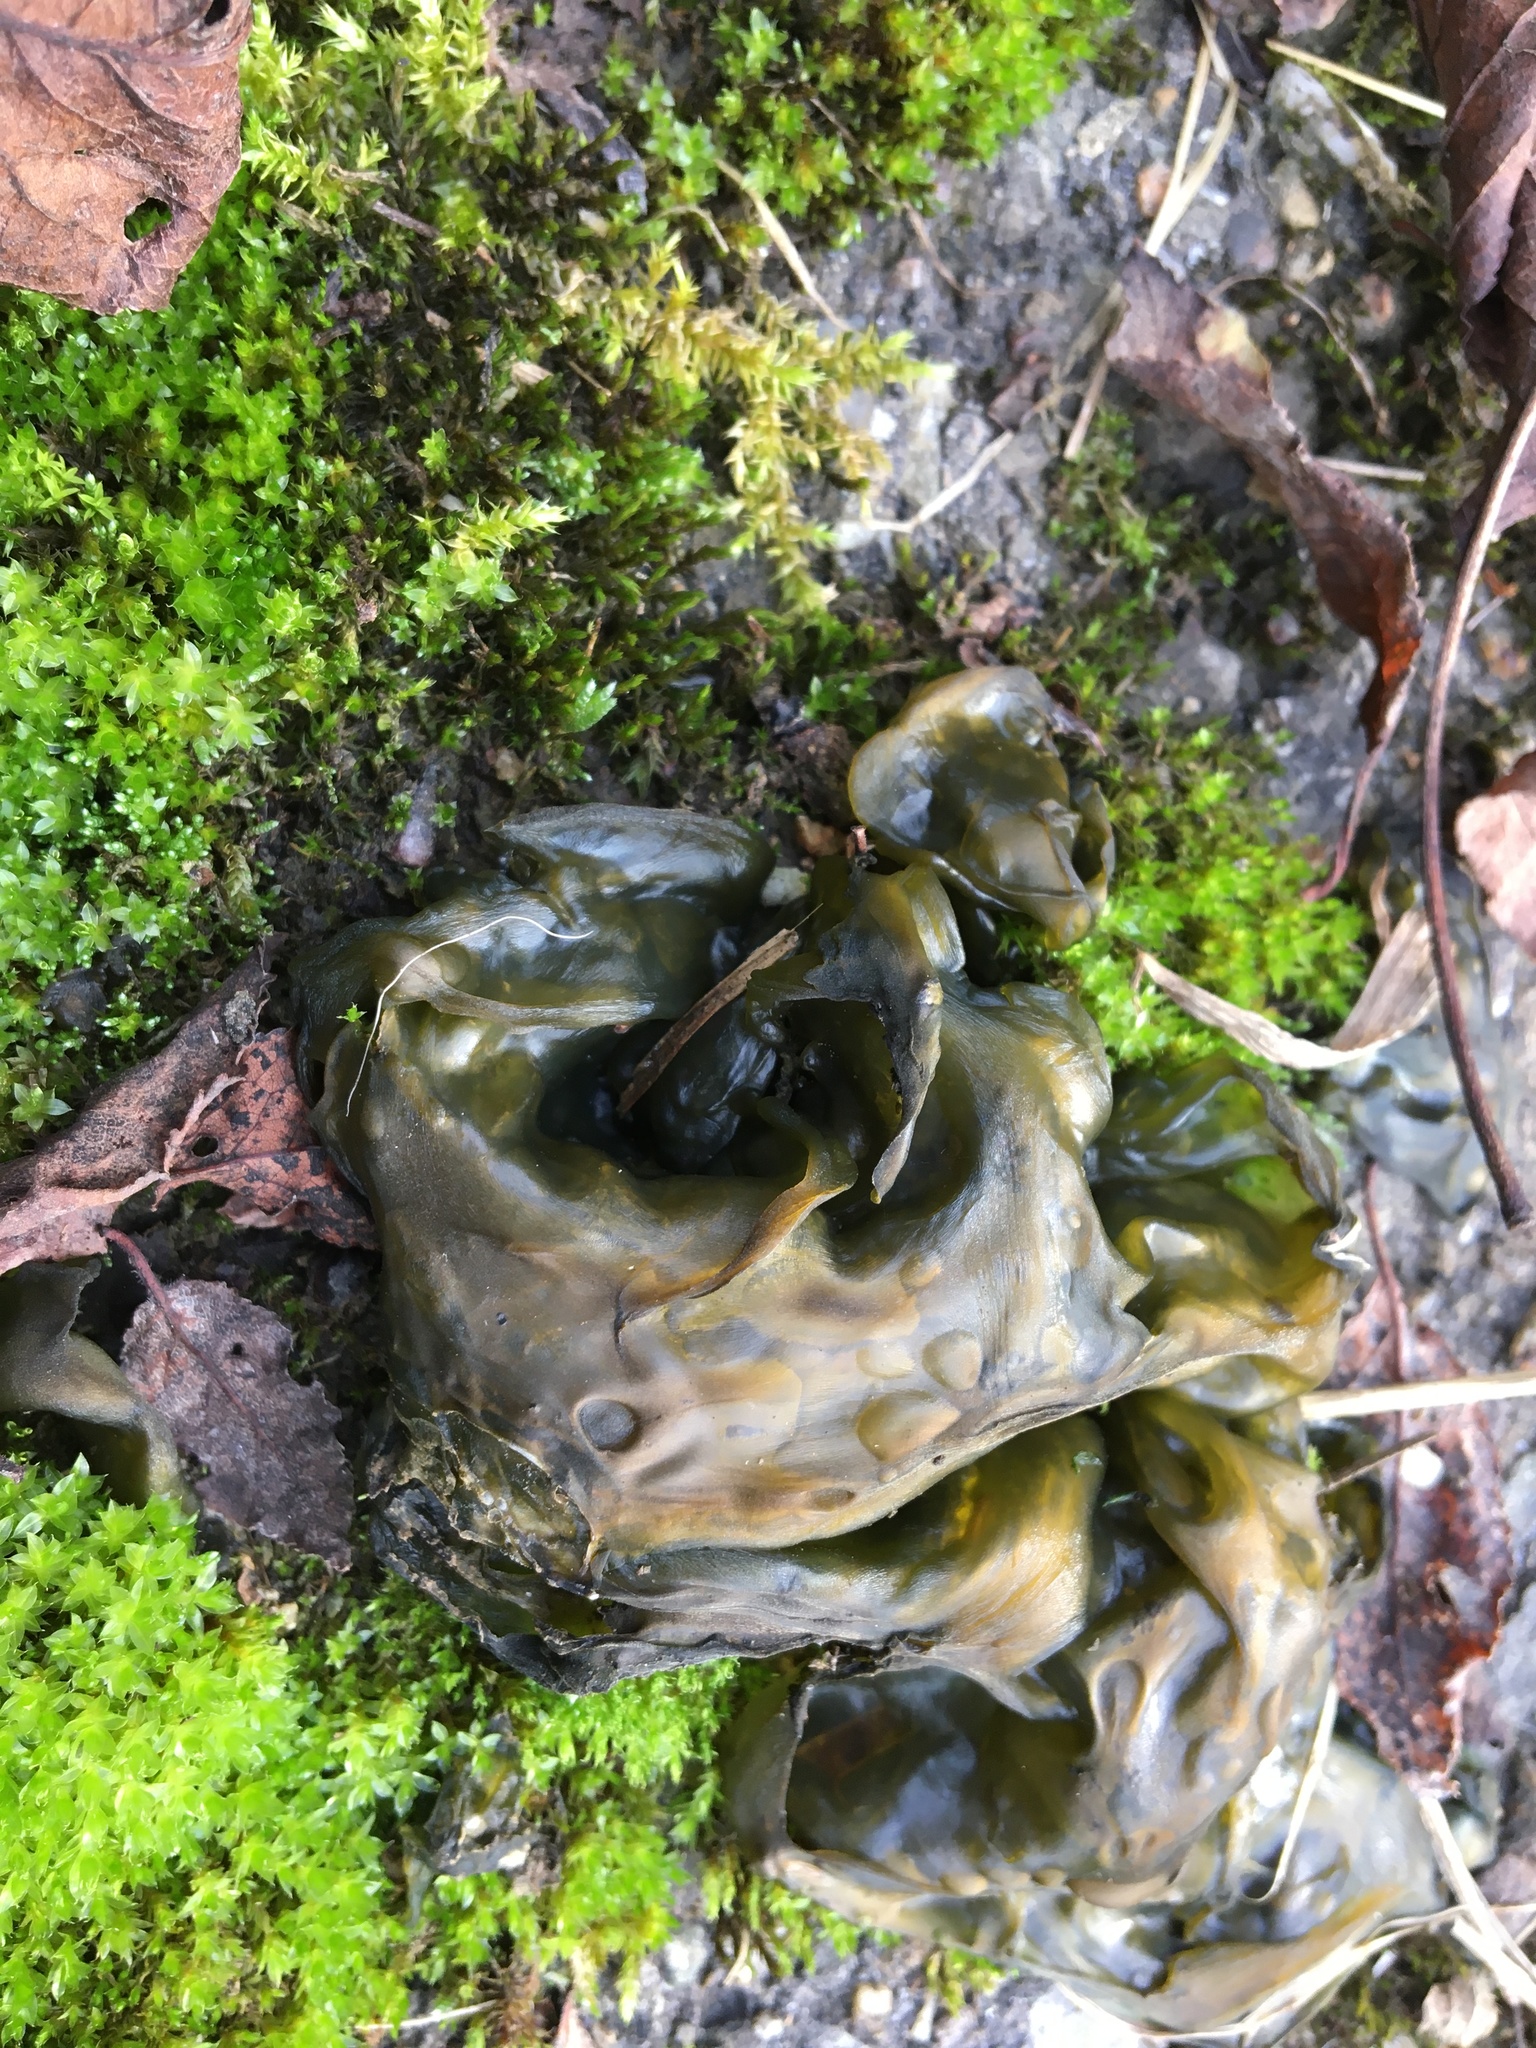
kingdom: Bacteria
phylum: Cyanobacteria
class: Cyanobacteriia
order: Cyanobacteriales
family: Nostocaceae
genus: Nostoc
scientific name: Nostoc commune
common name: Star jelly
